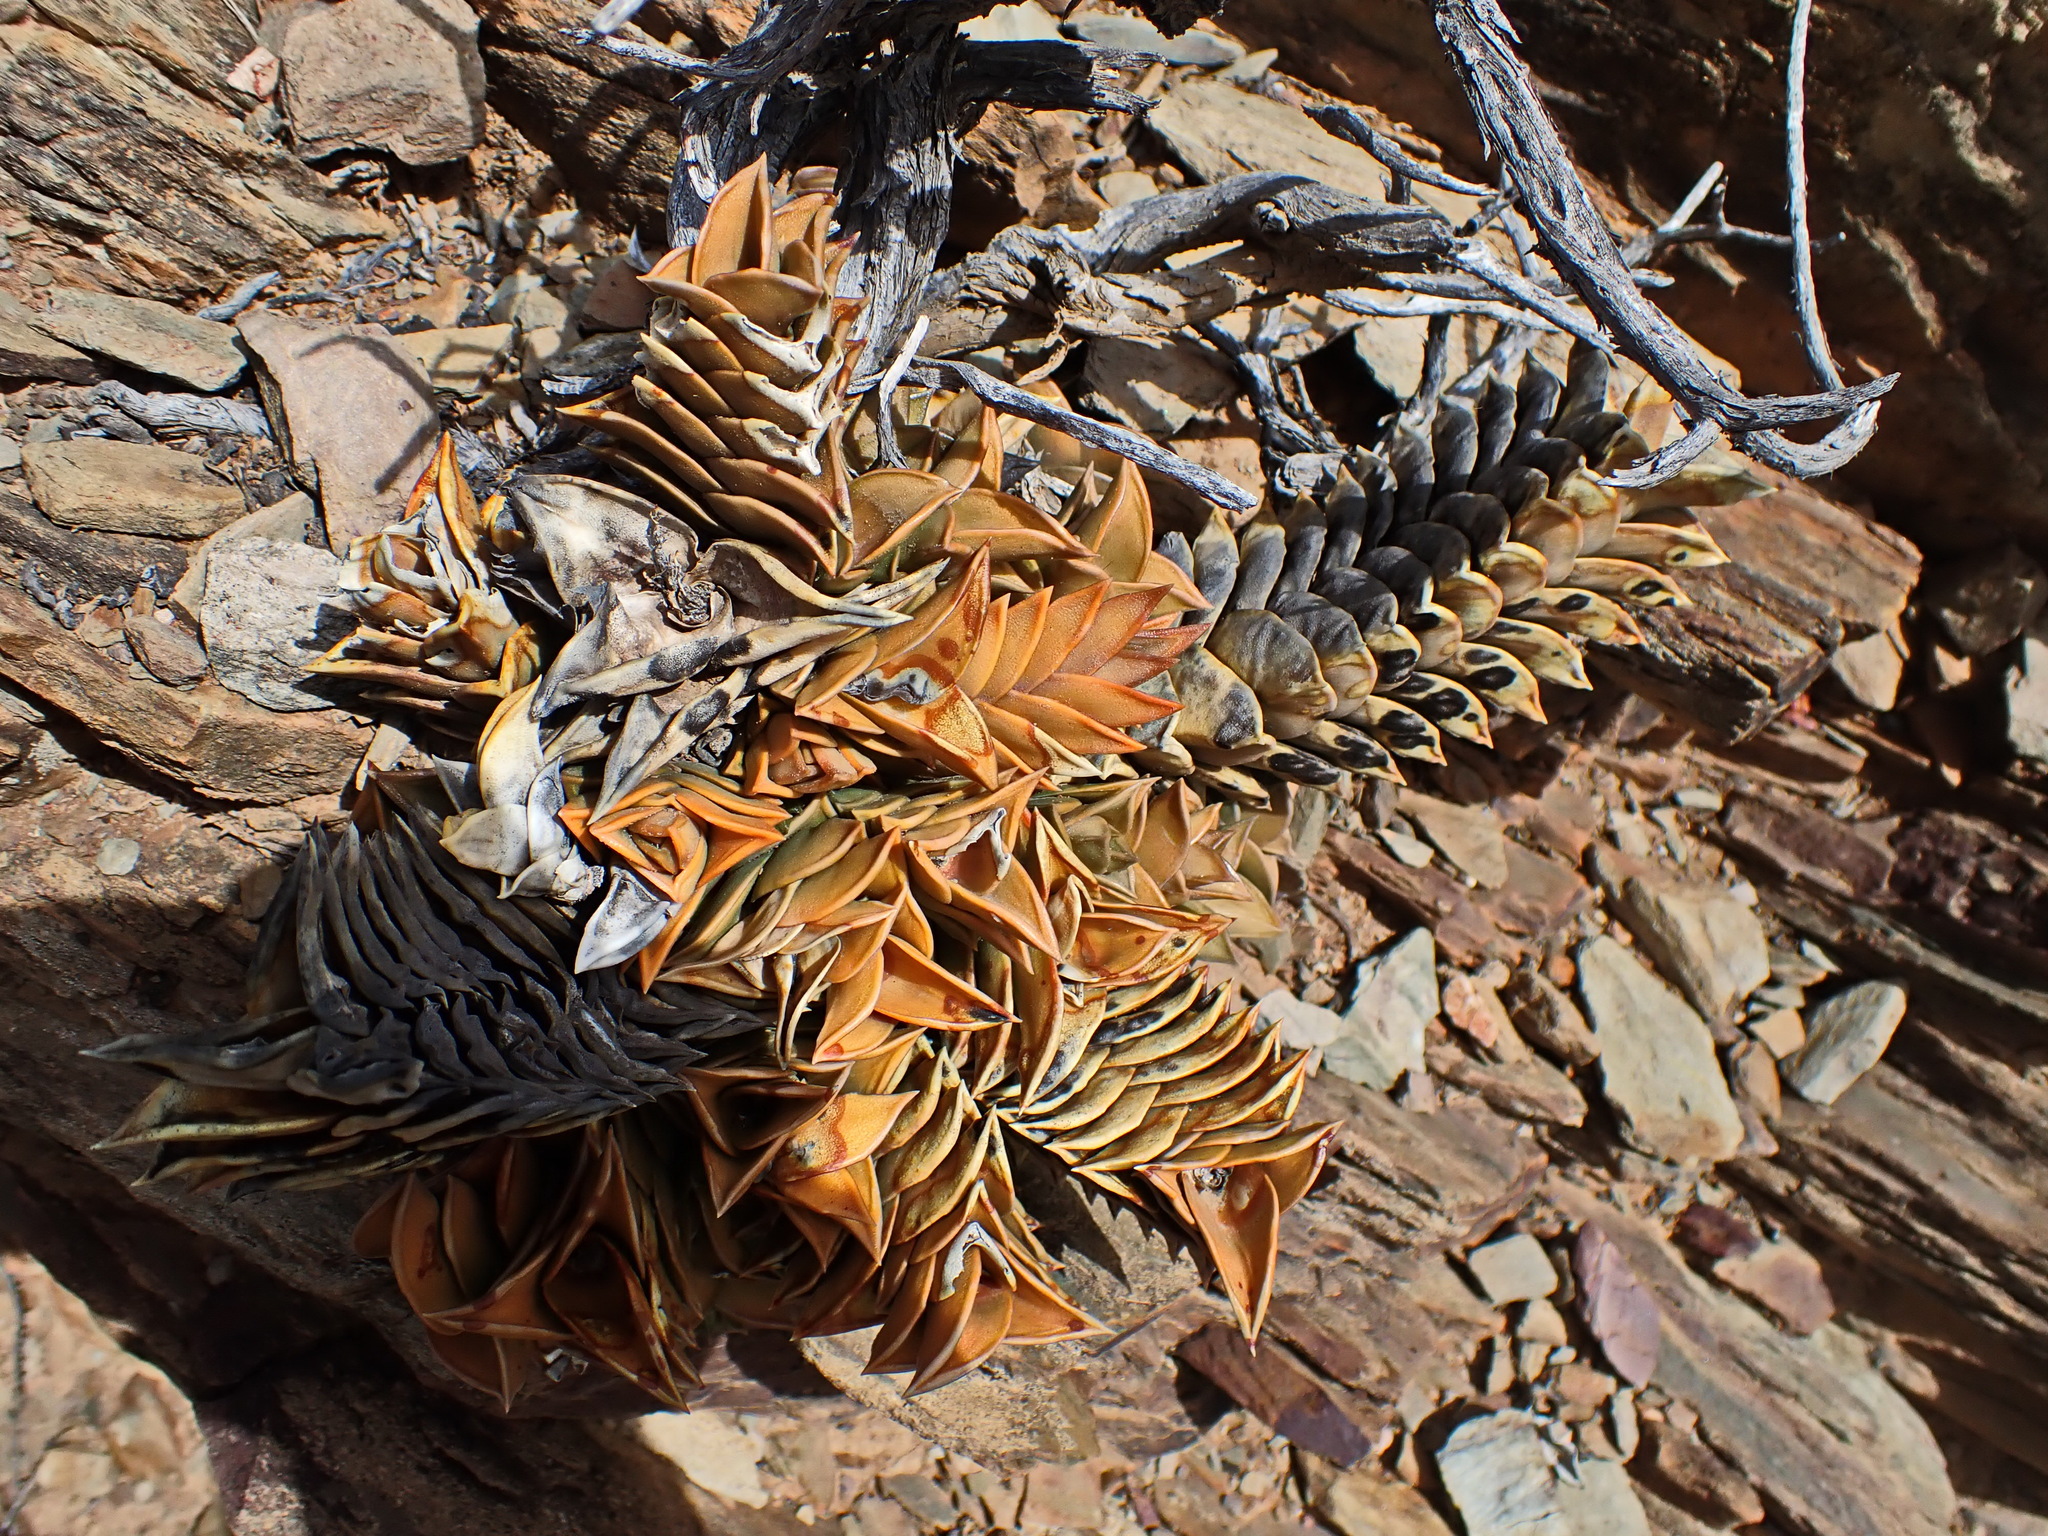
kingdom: Plantae
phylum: Tracheophyta
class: Liliopsida
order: Asparagales
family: Asphodelaceae
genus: Haworthiopsis
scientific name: Haworthiopsis viscosa
